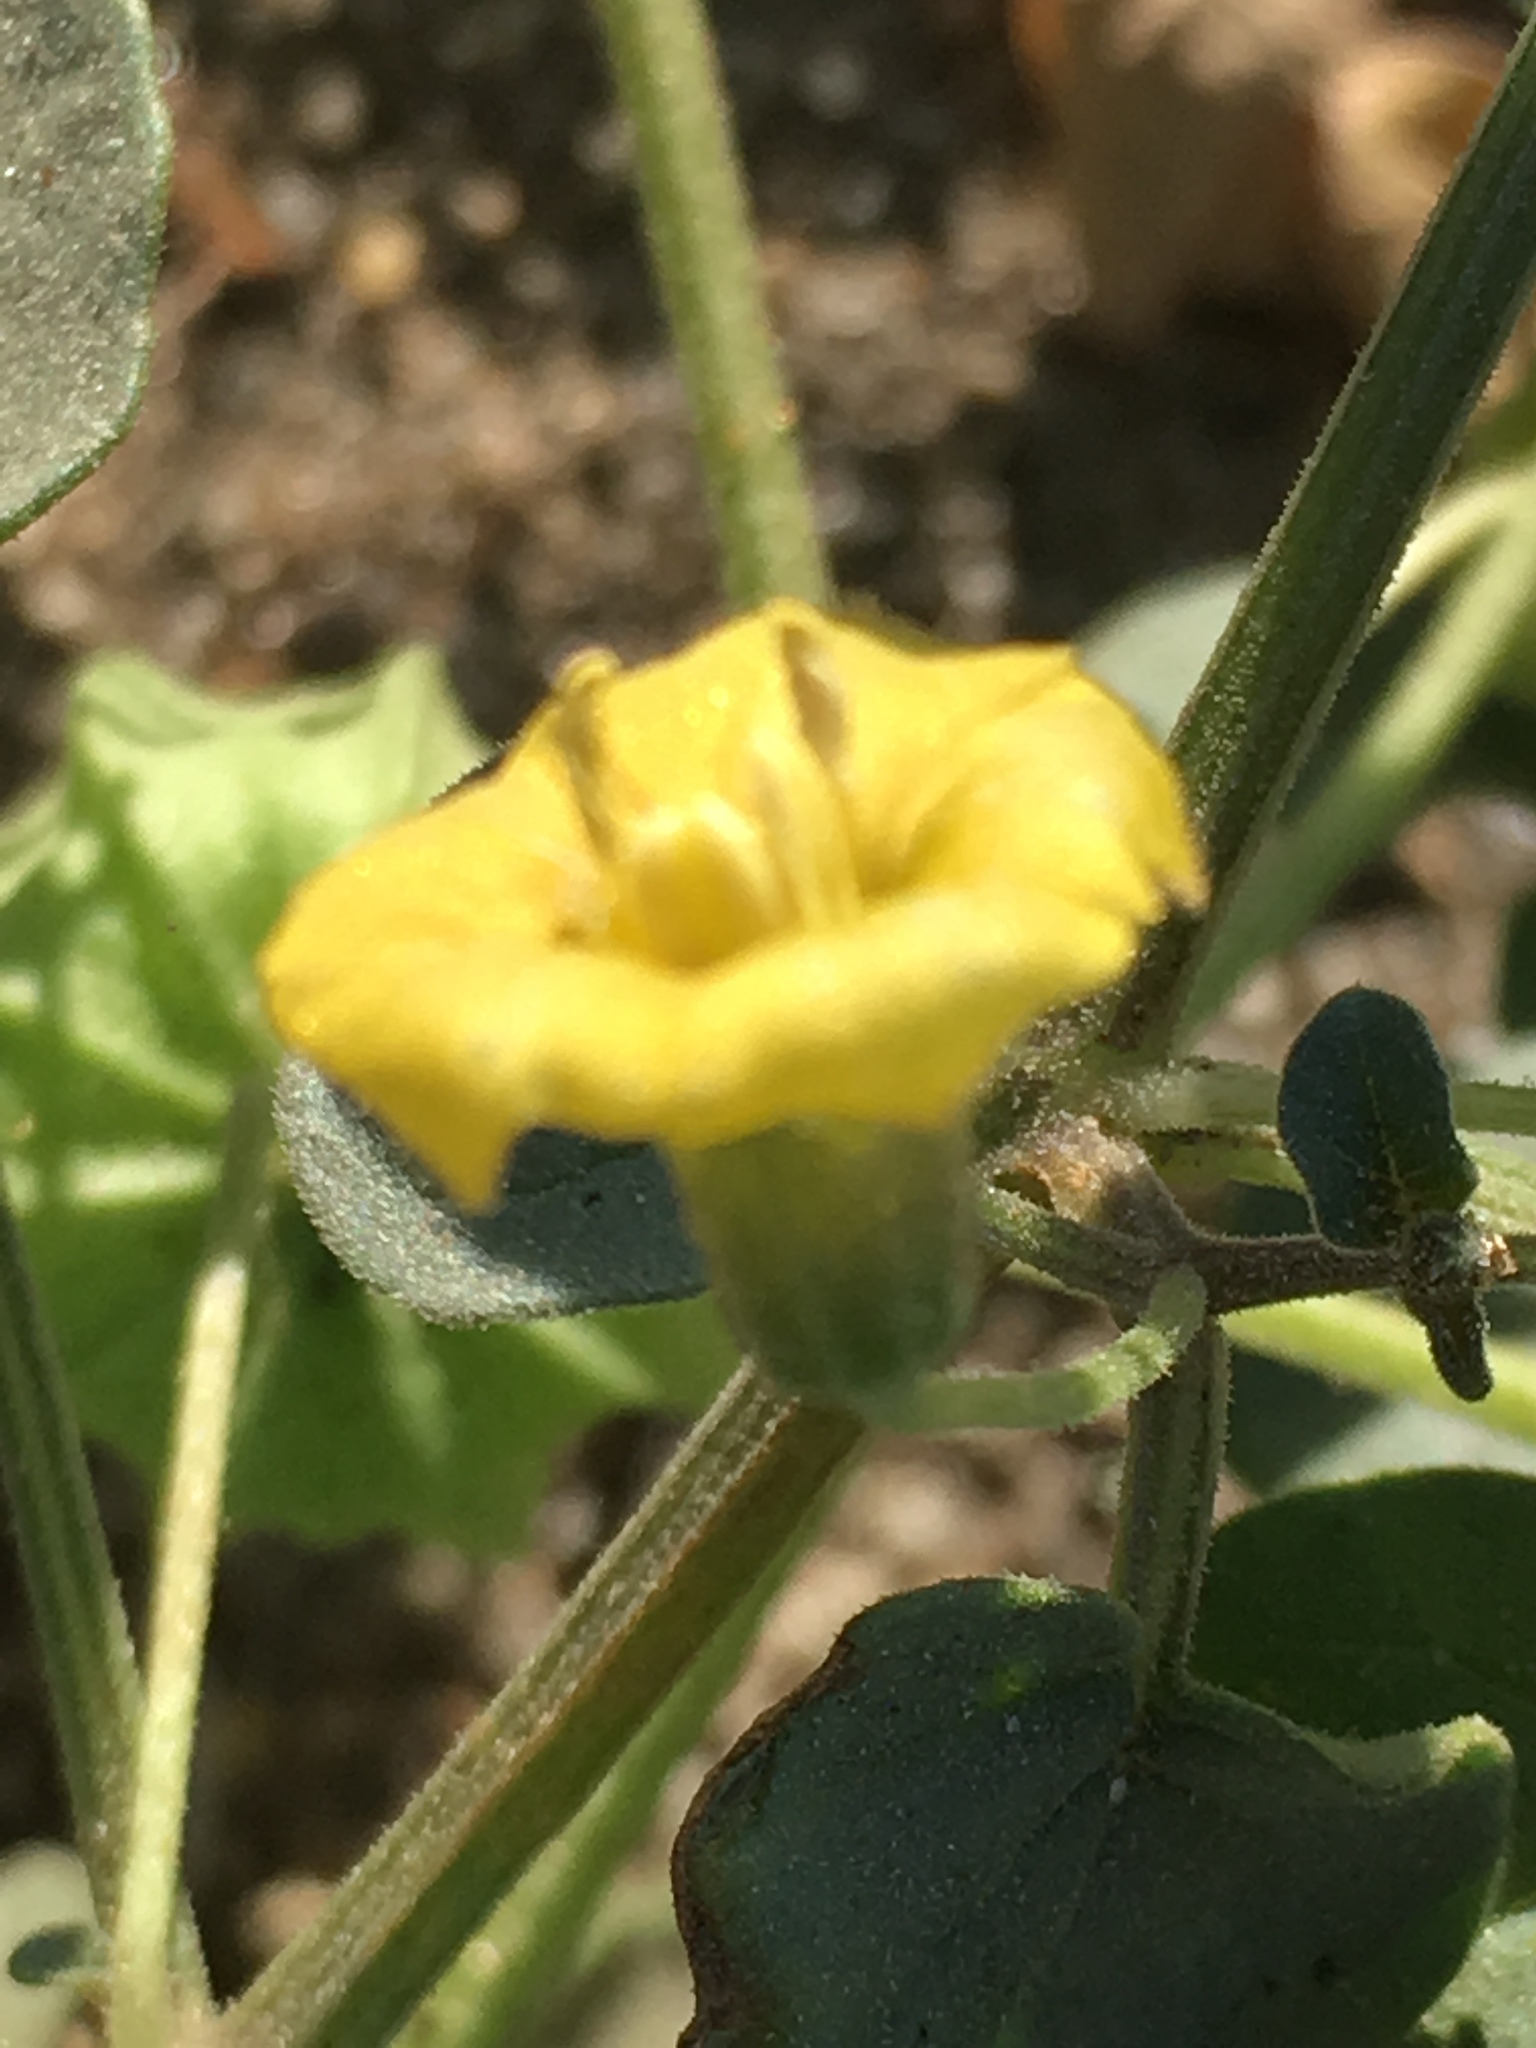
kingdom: Plantae
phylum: Tracheophyta
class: Magnoliopsida
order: Solanales
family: Solanaceae
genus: Physalis
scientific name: Physalis crassifolia
